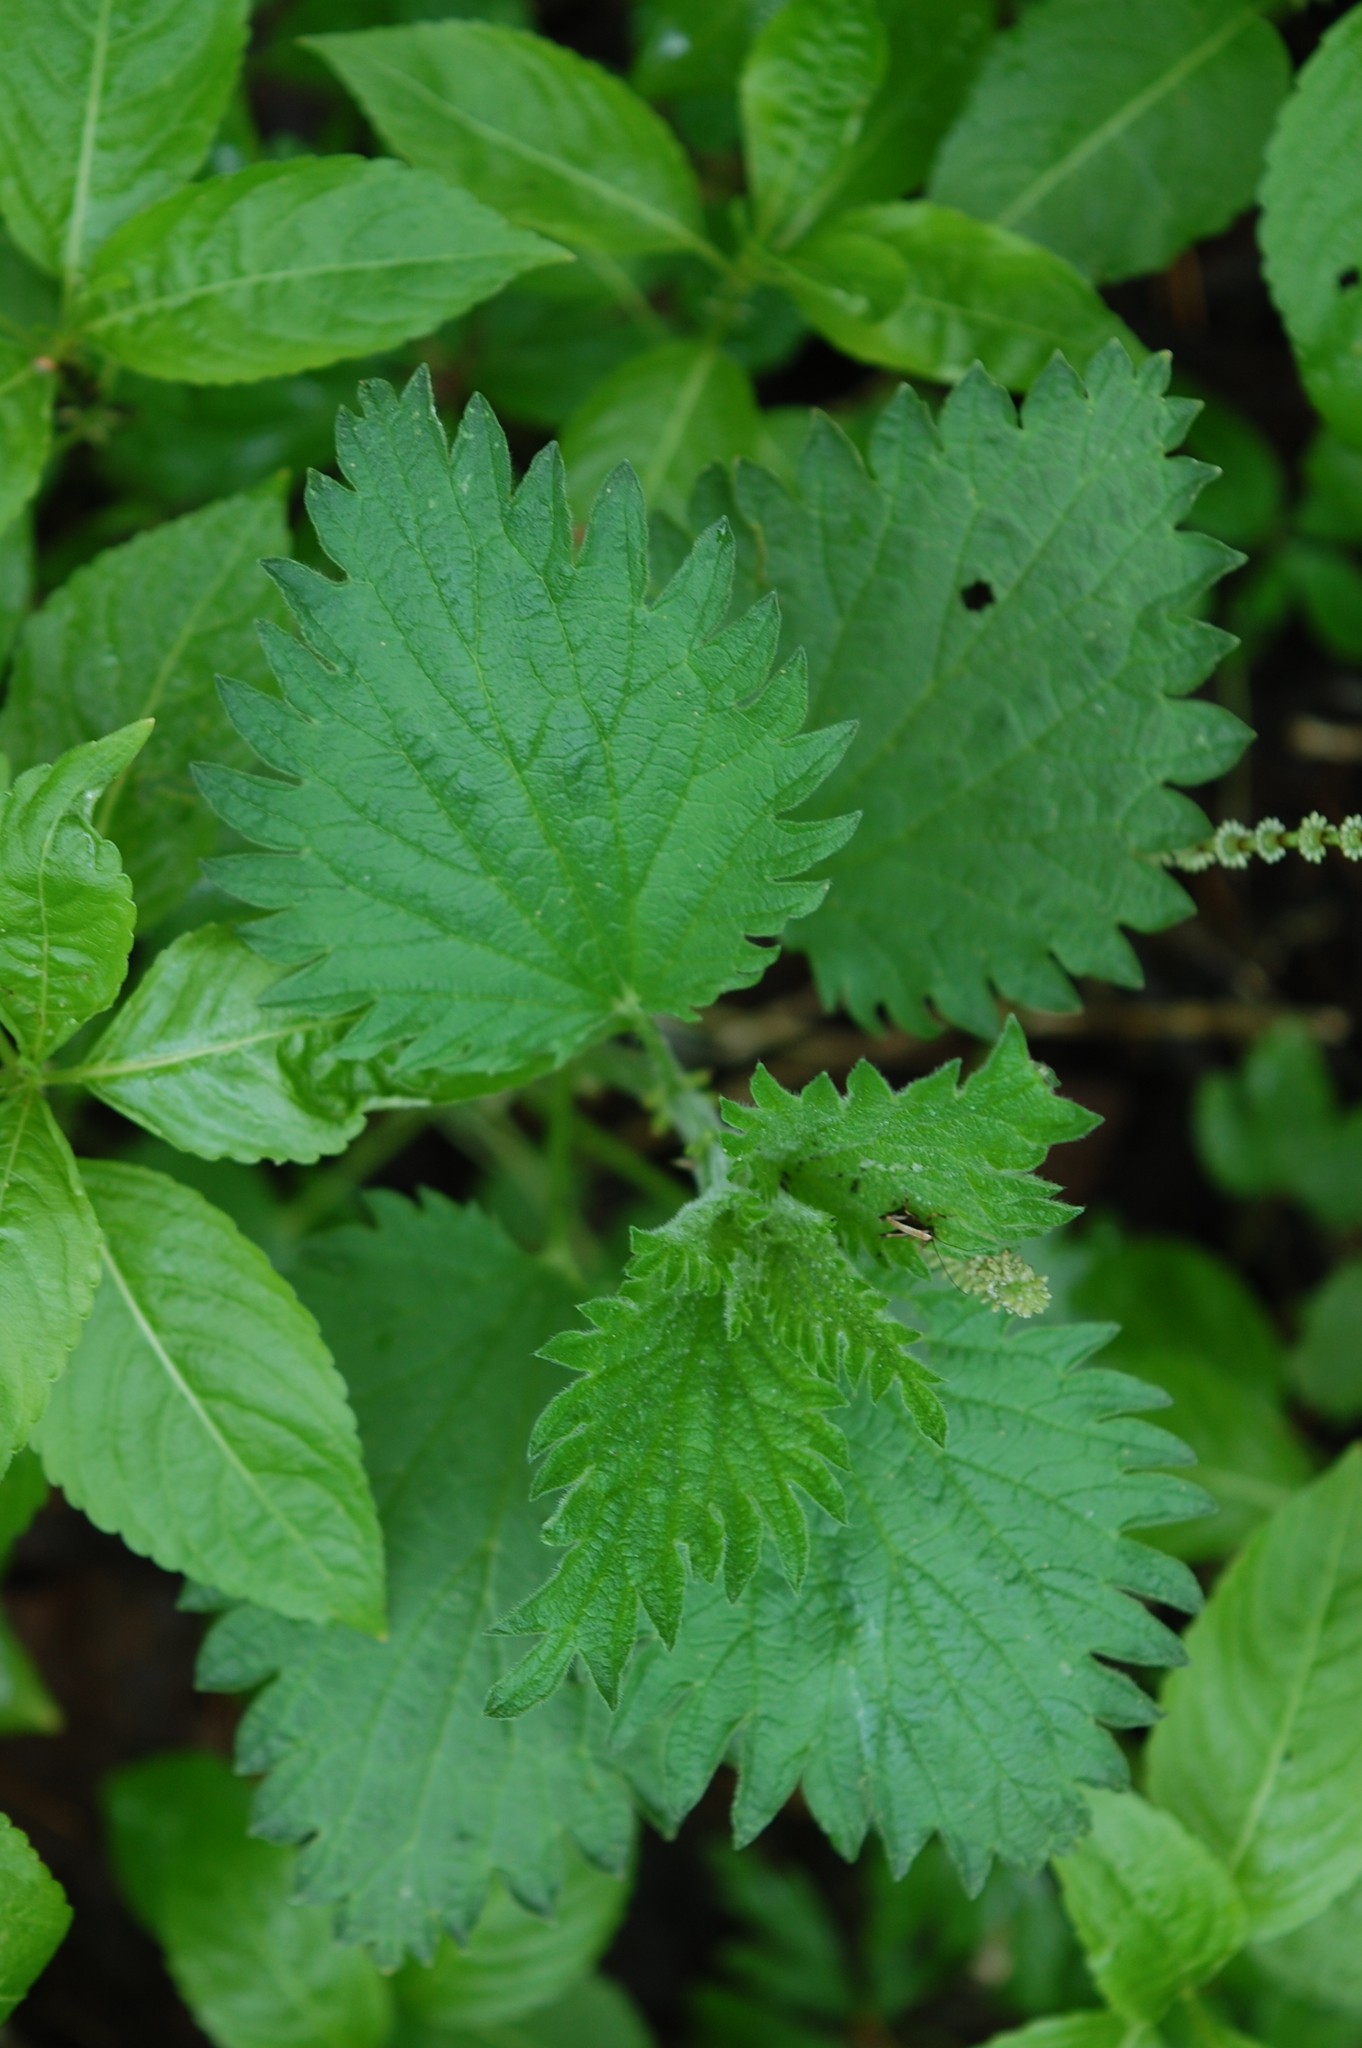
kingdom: Plantae
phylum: Tracheophyta
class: Magnoliopsida
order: Rosales
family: Urticaceae
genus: Urtica
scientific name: Urtica dioica
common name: Common nettle
